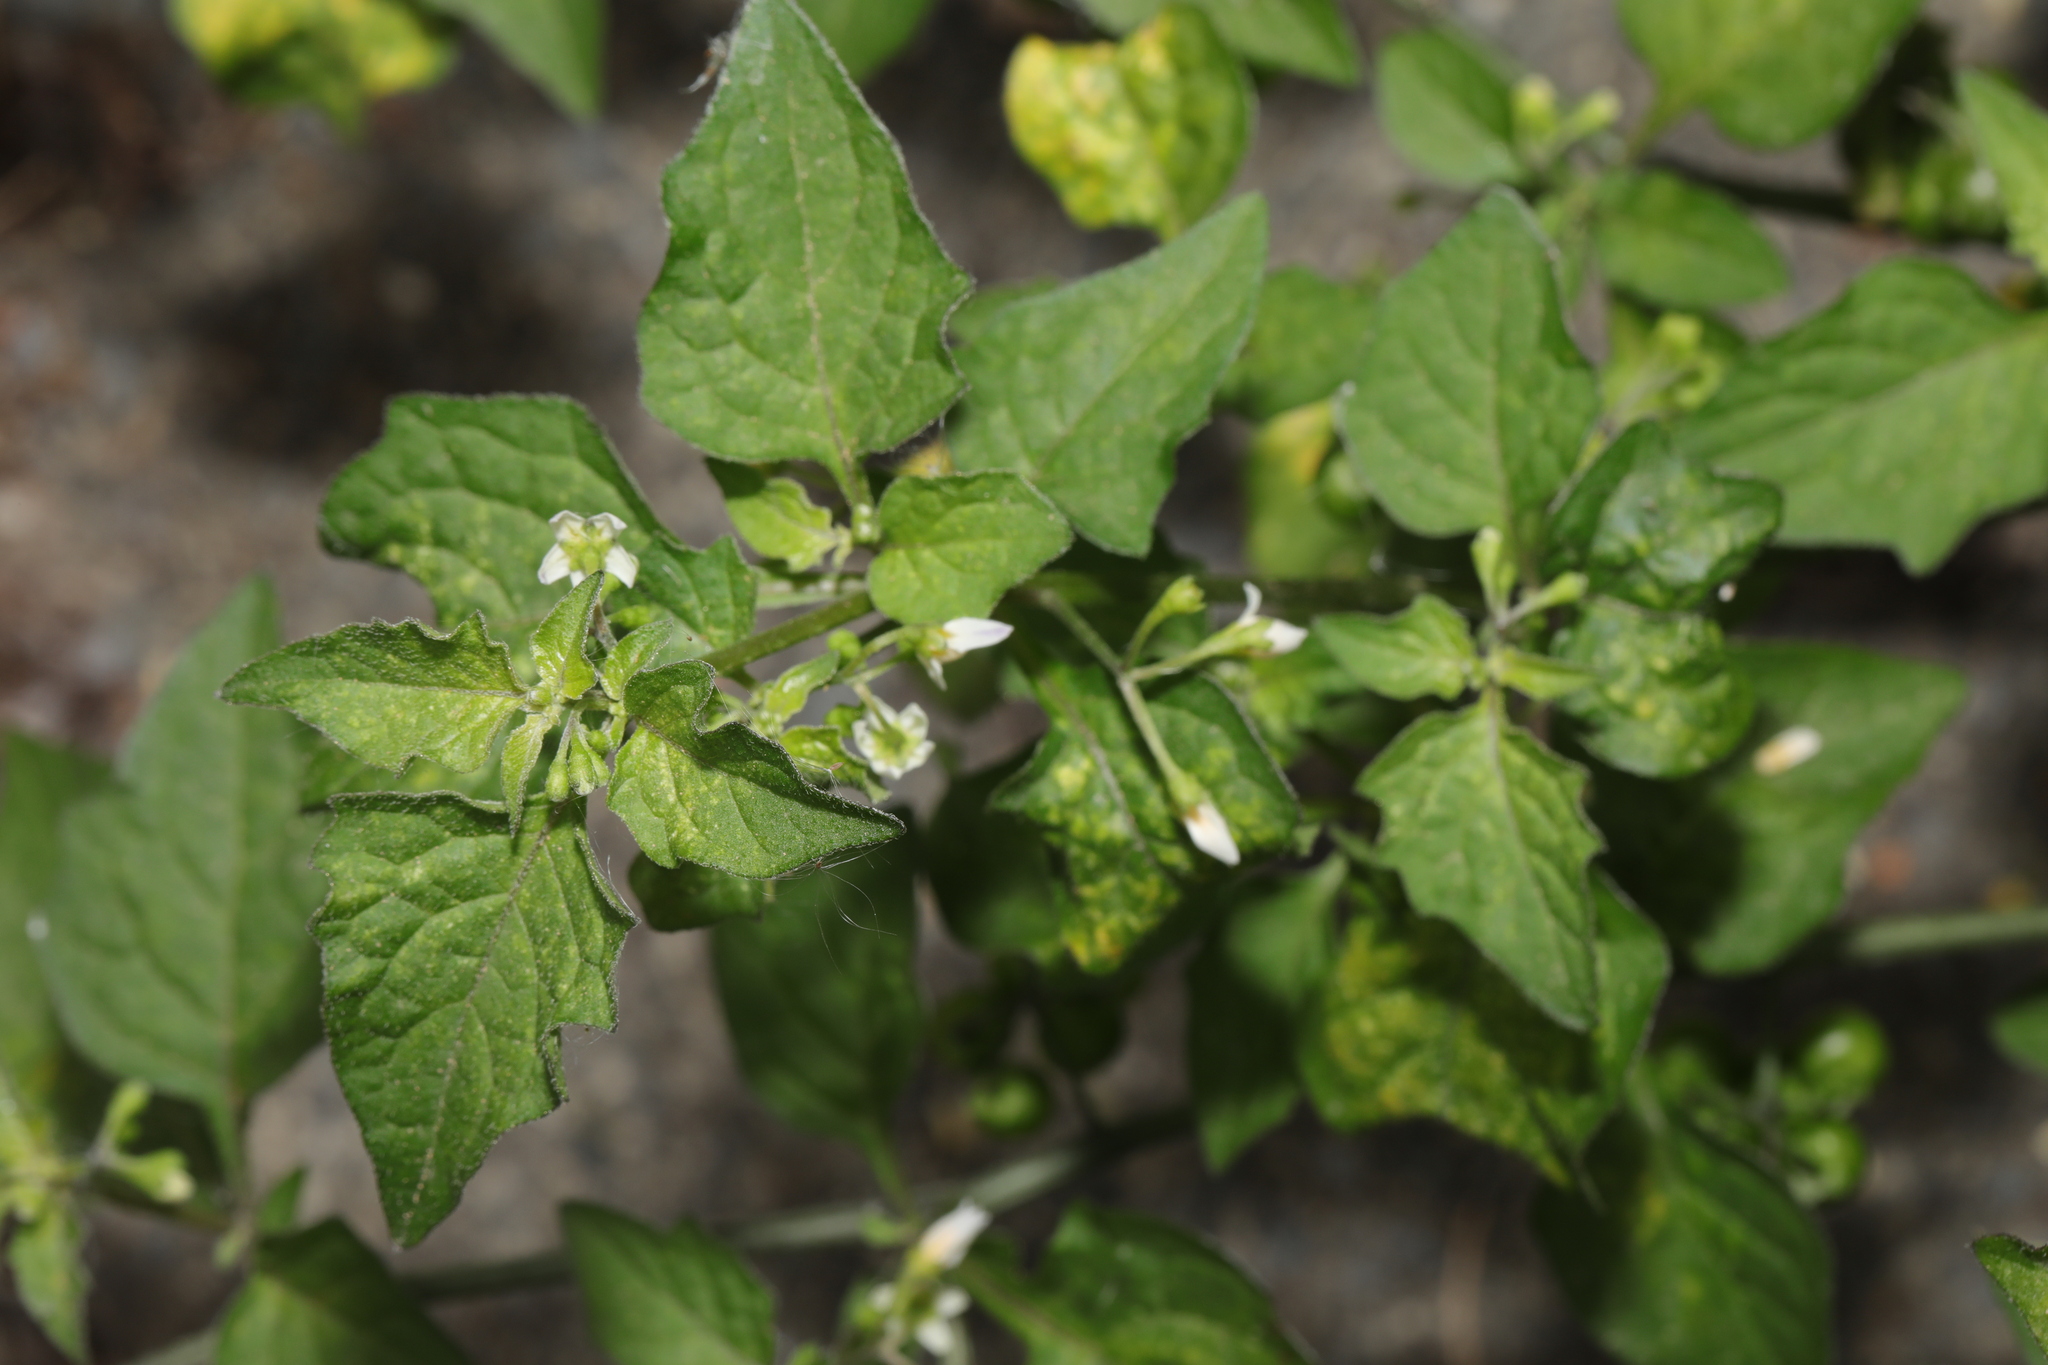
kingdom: Plantae
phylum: Tracheophyta
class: Magnoliopsida
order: Solanales
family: Solanaceae
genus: Solanum
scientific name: Solanum nigrum
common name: Black nightshade
